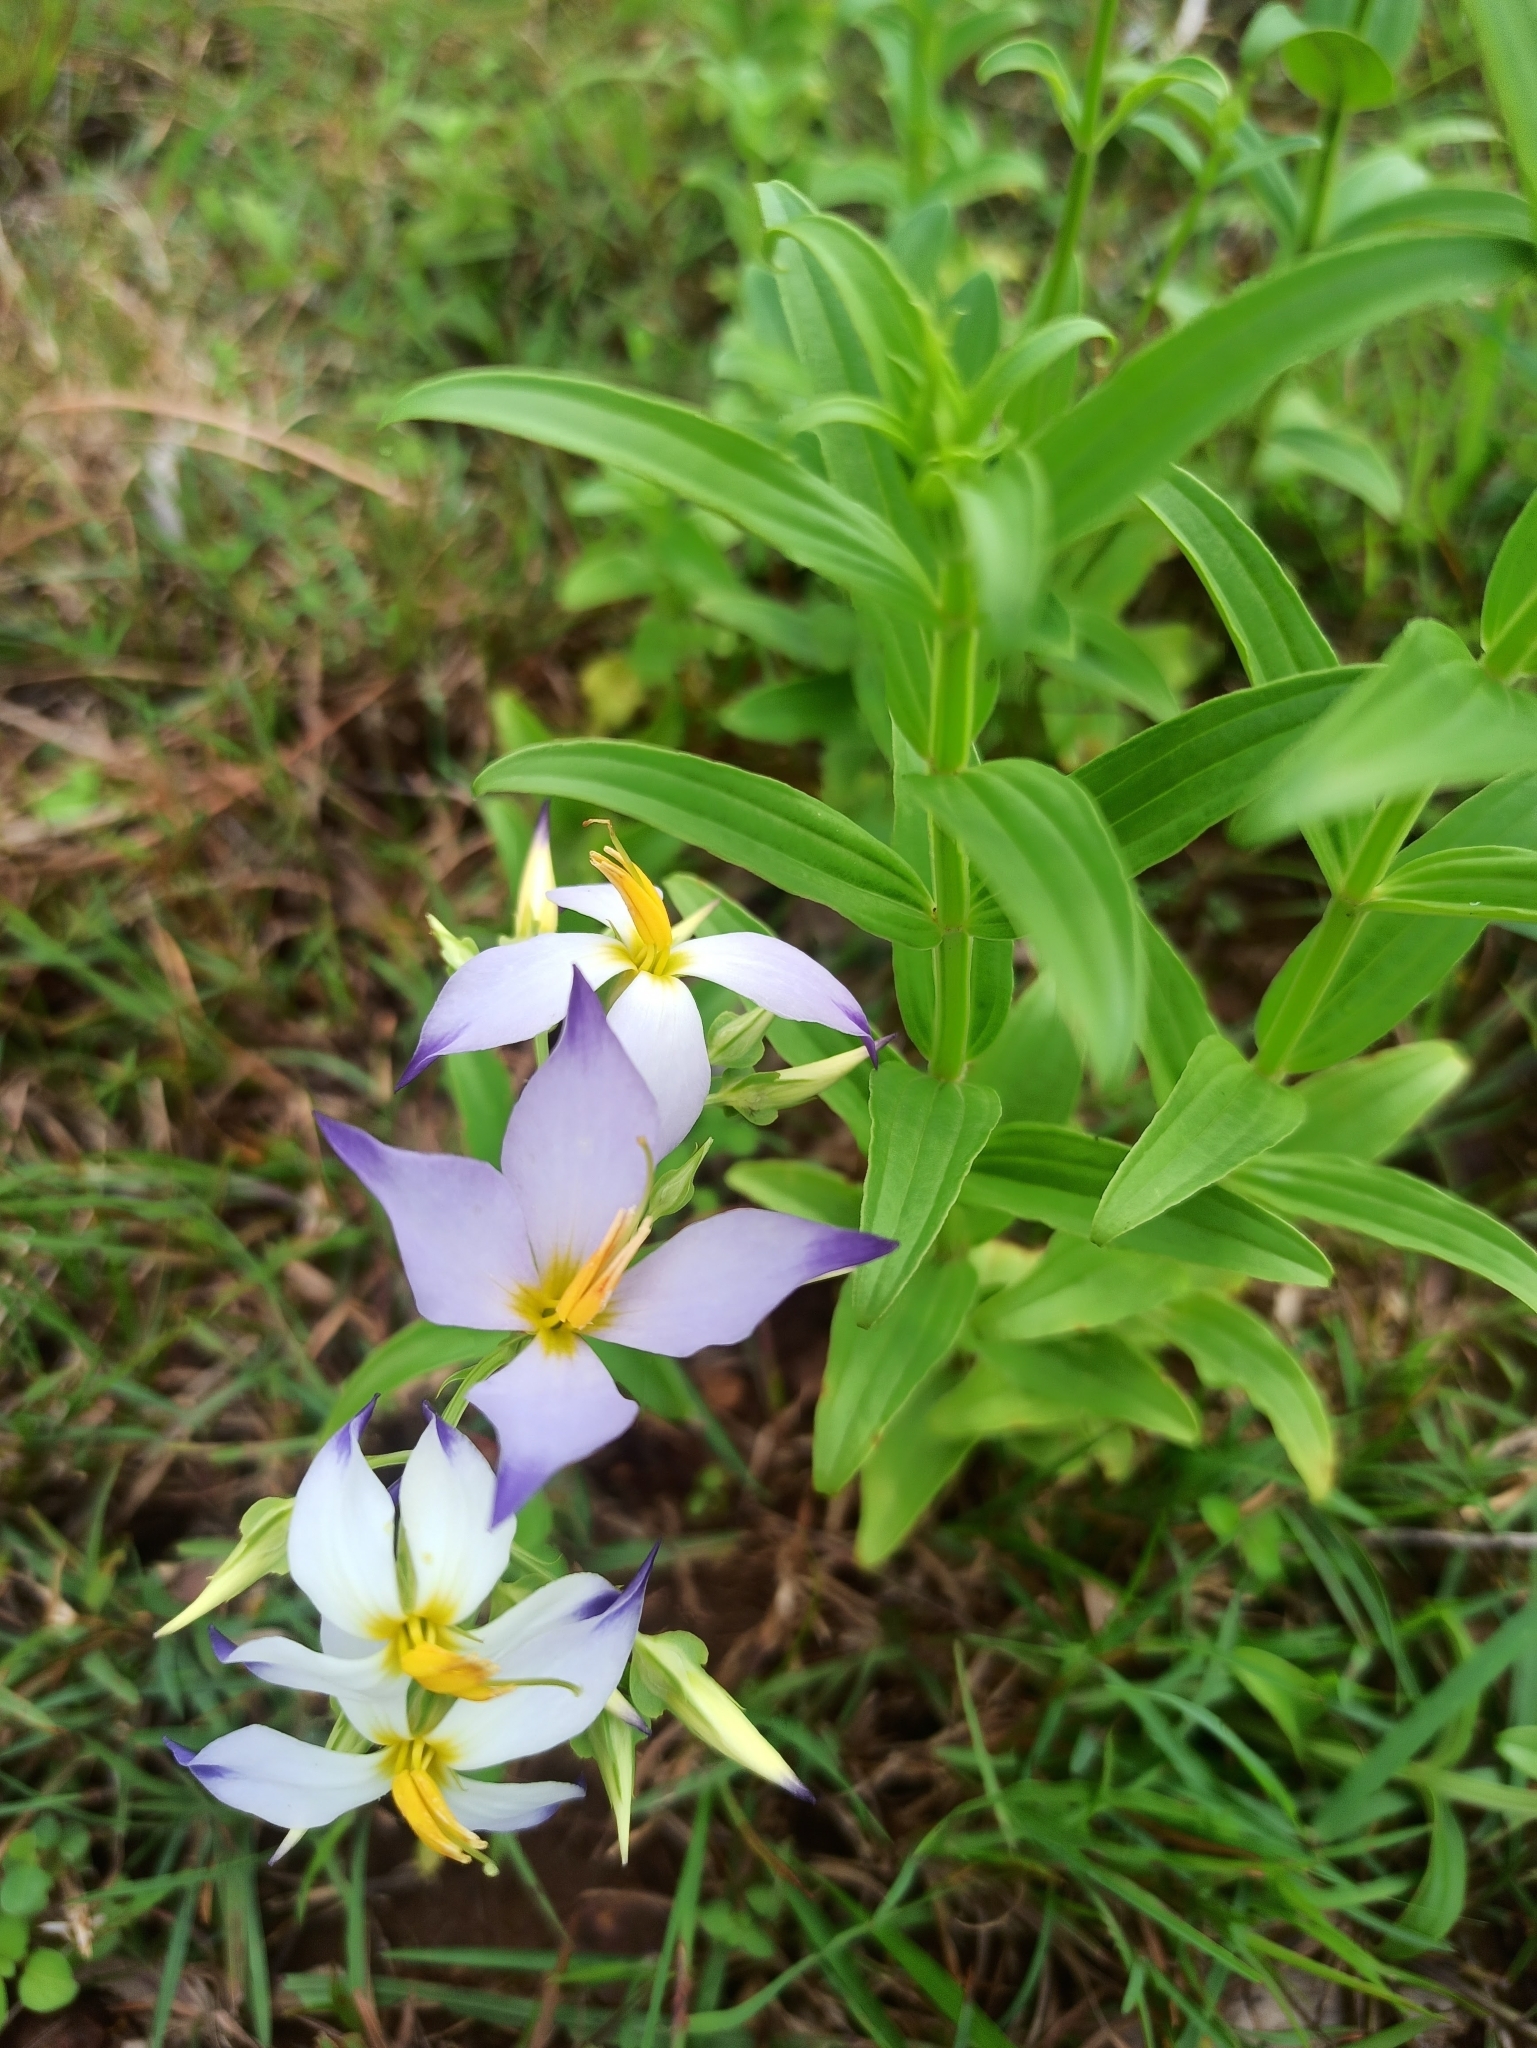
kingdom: Plantae
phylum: Tracheophyta
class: Magnoliopsida
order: Gentianales
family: Gentianaceae
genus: Exacum
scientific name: Exacum tetragonum
